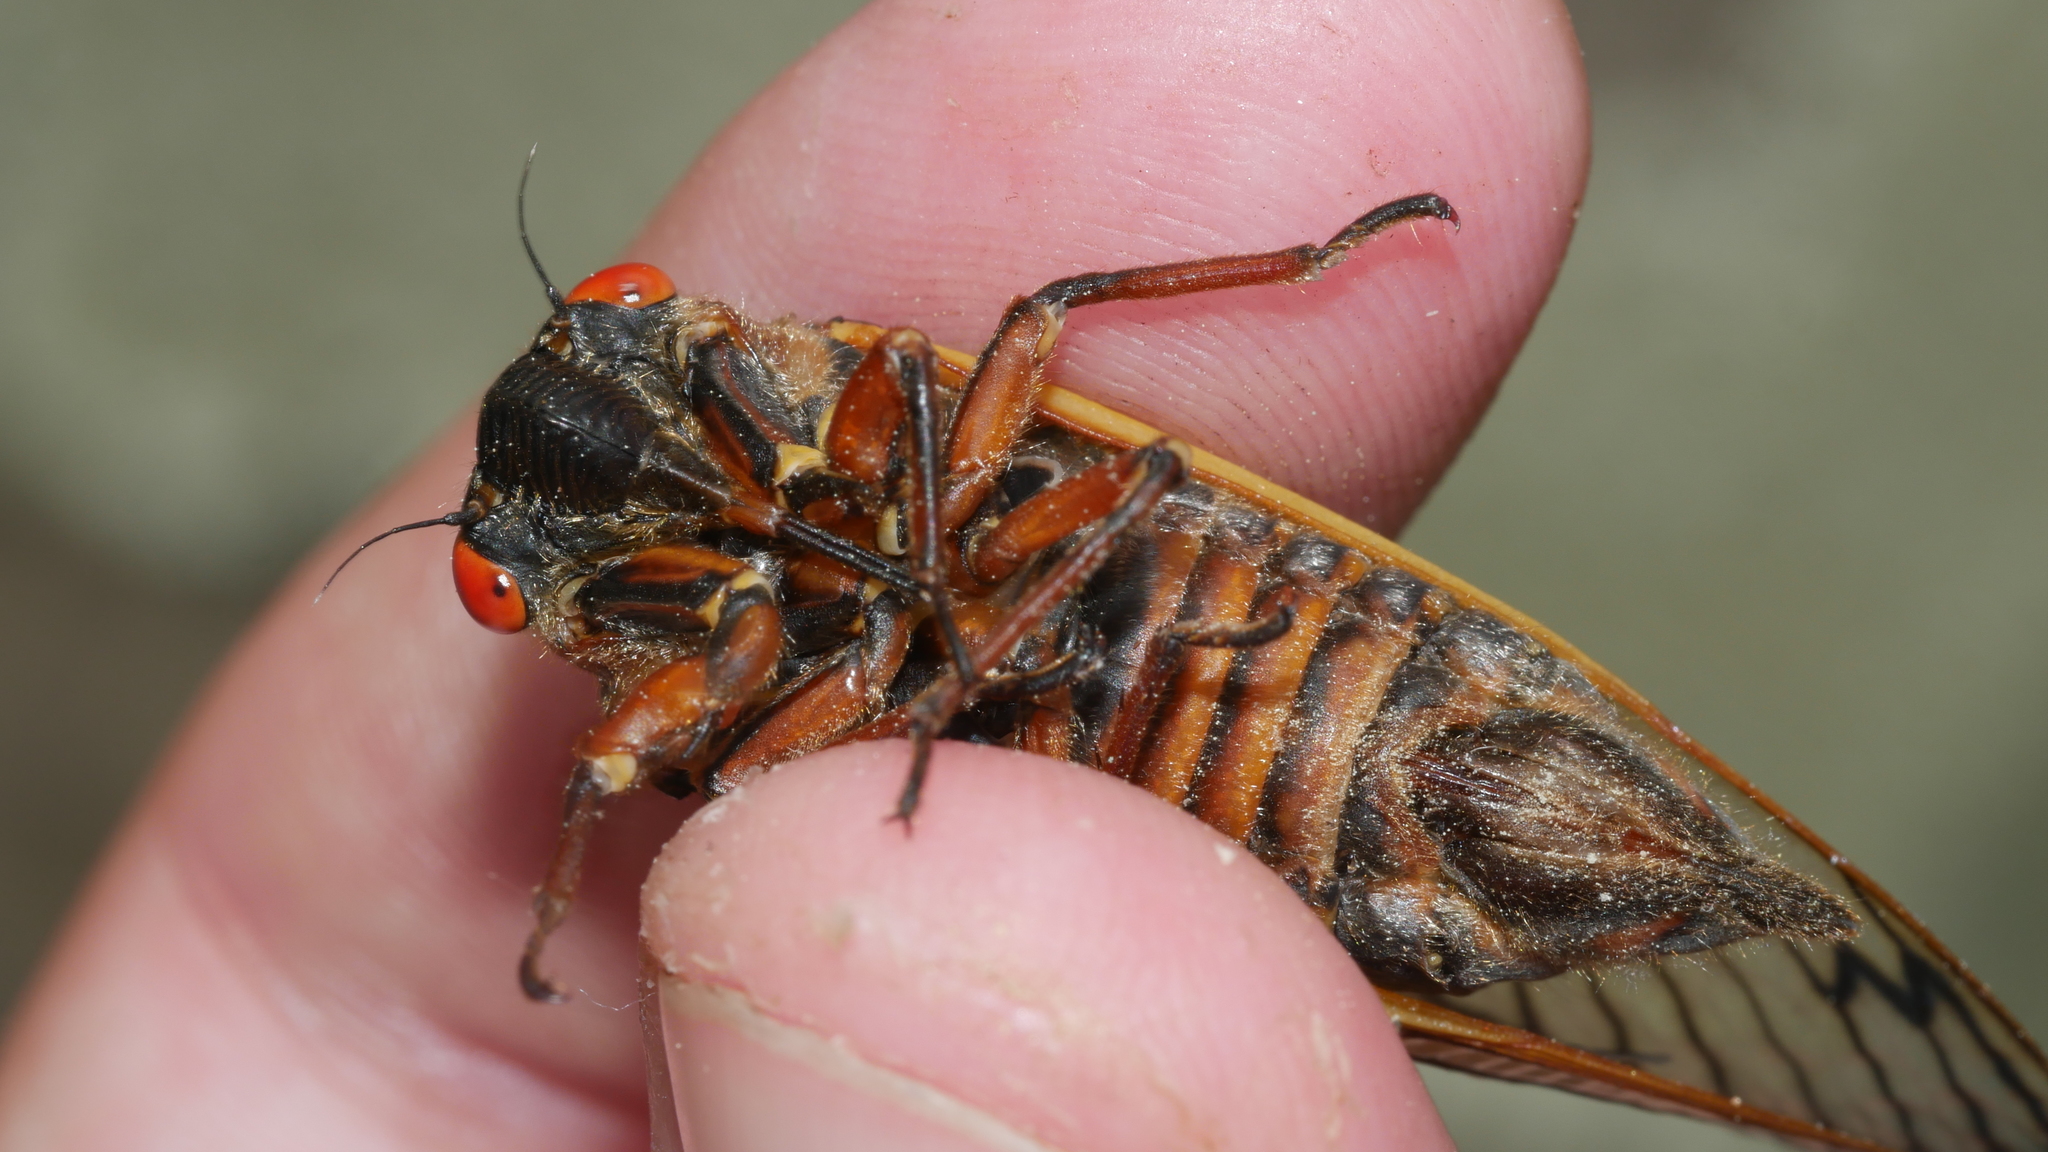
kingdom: Animalia
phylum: Arthropoda
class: Insecta
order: Hemiptera
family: Cicadidae
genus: Magicicada
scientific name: Magicicada septendecim
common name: Periodical cicada
